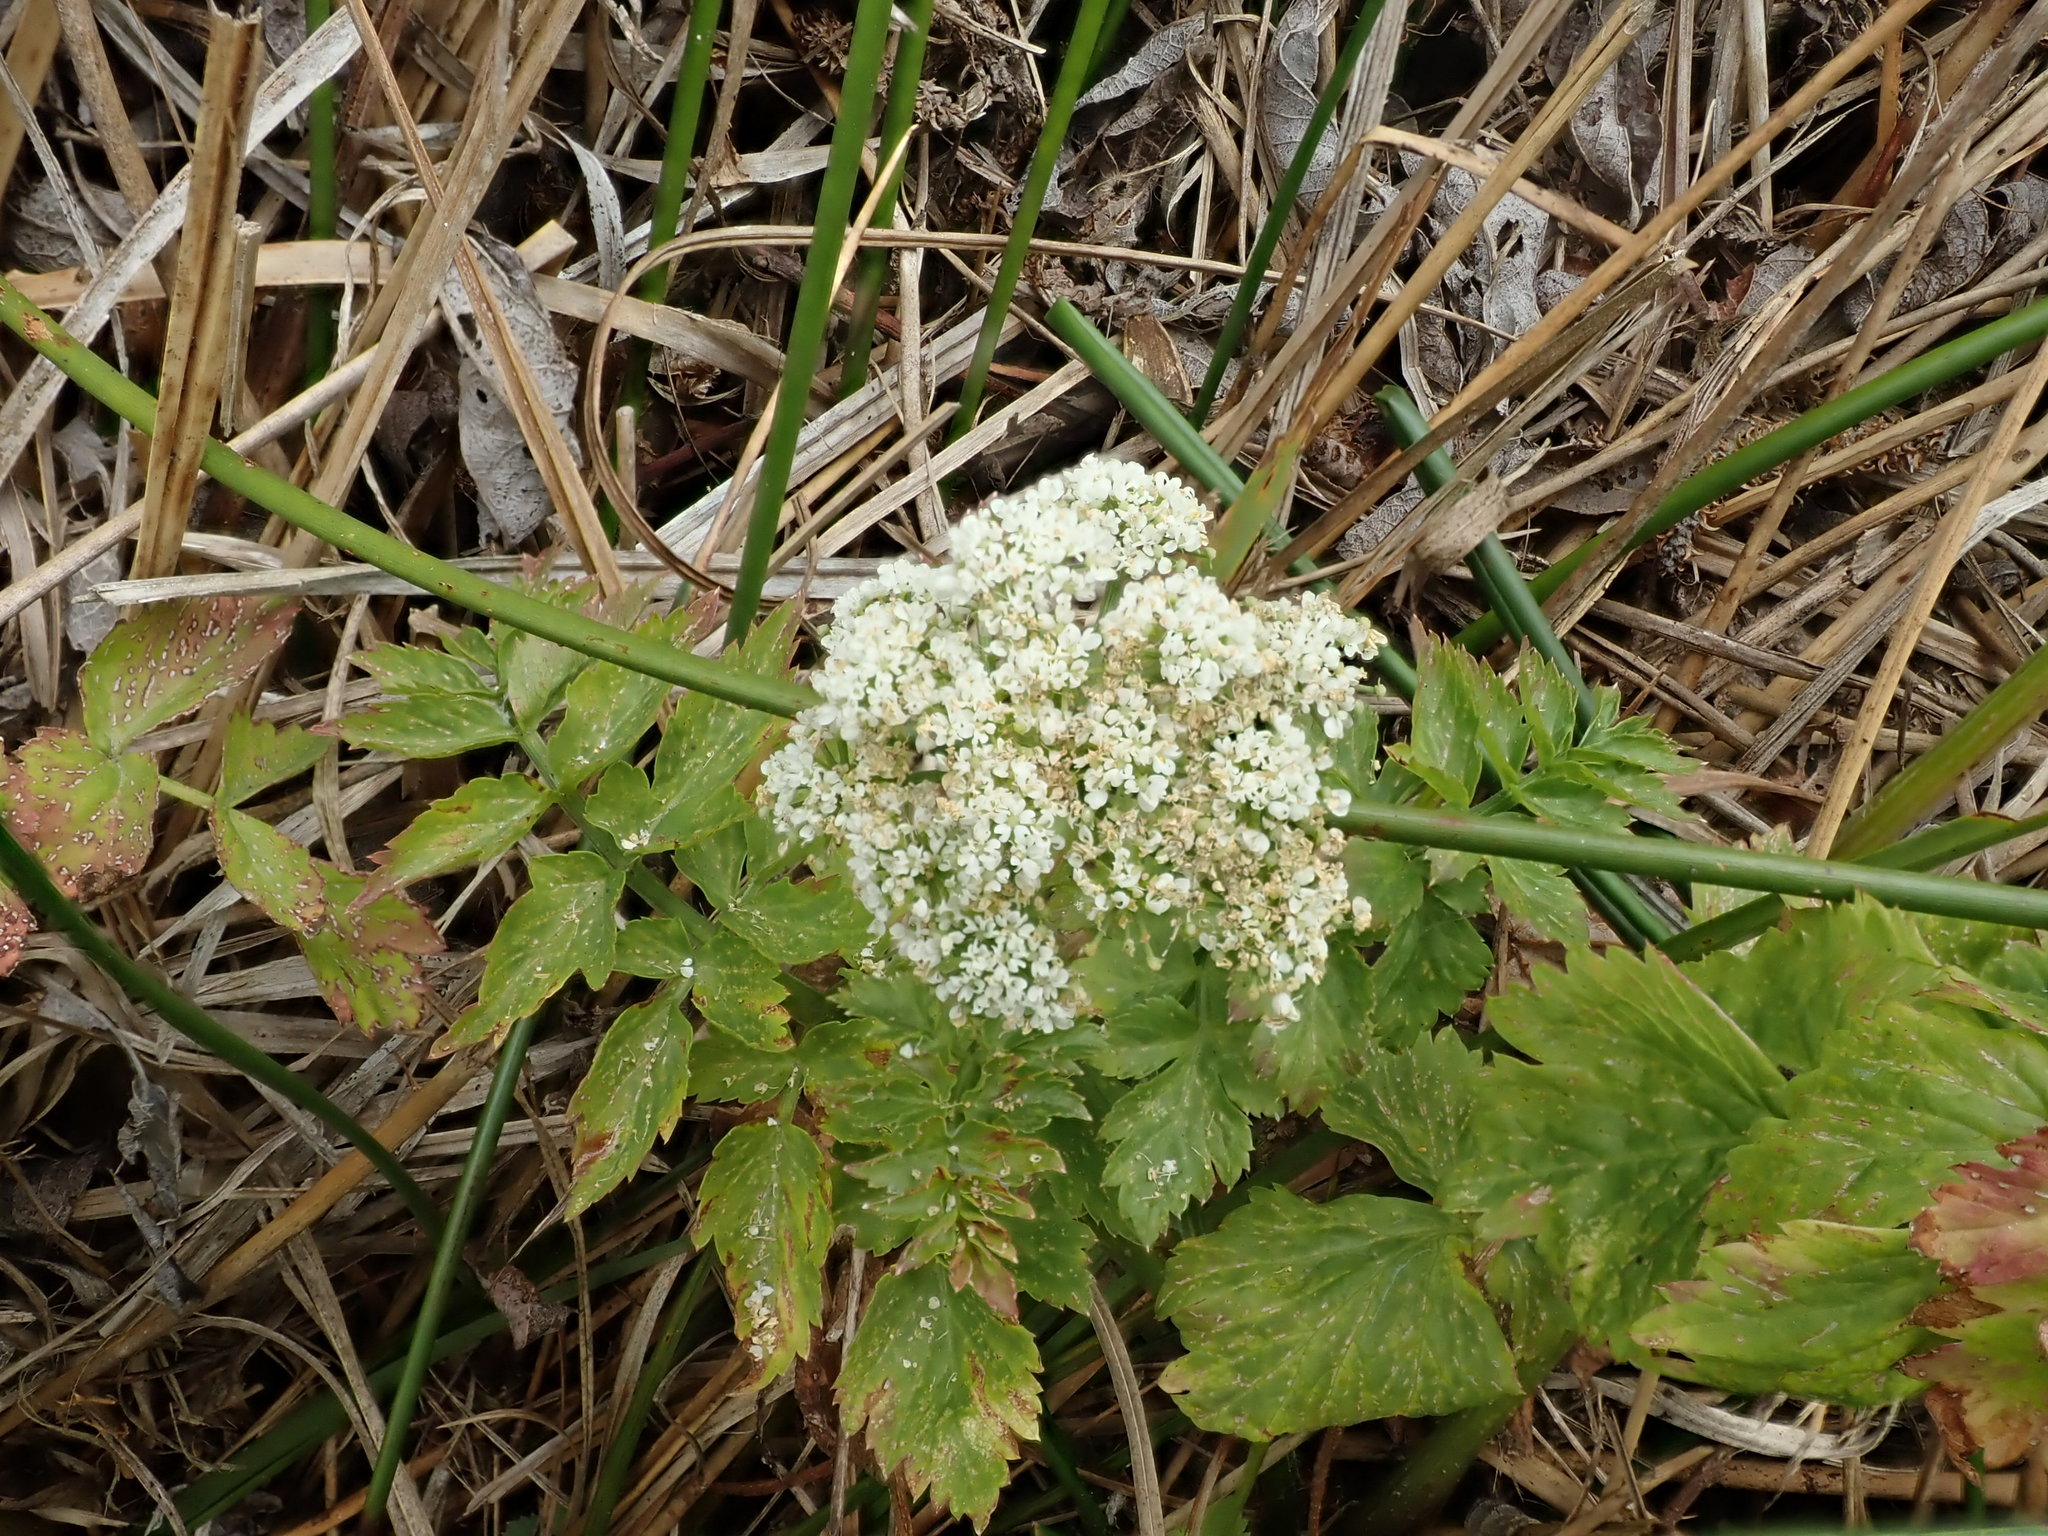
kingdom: Plantae
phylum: Tracheophyta
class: Magnoliopsida
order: Apiales
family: Apiaceae
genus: Oenanthe
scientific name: Oenanthe sarmentosa
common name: American water-parsley
